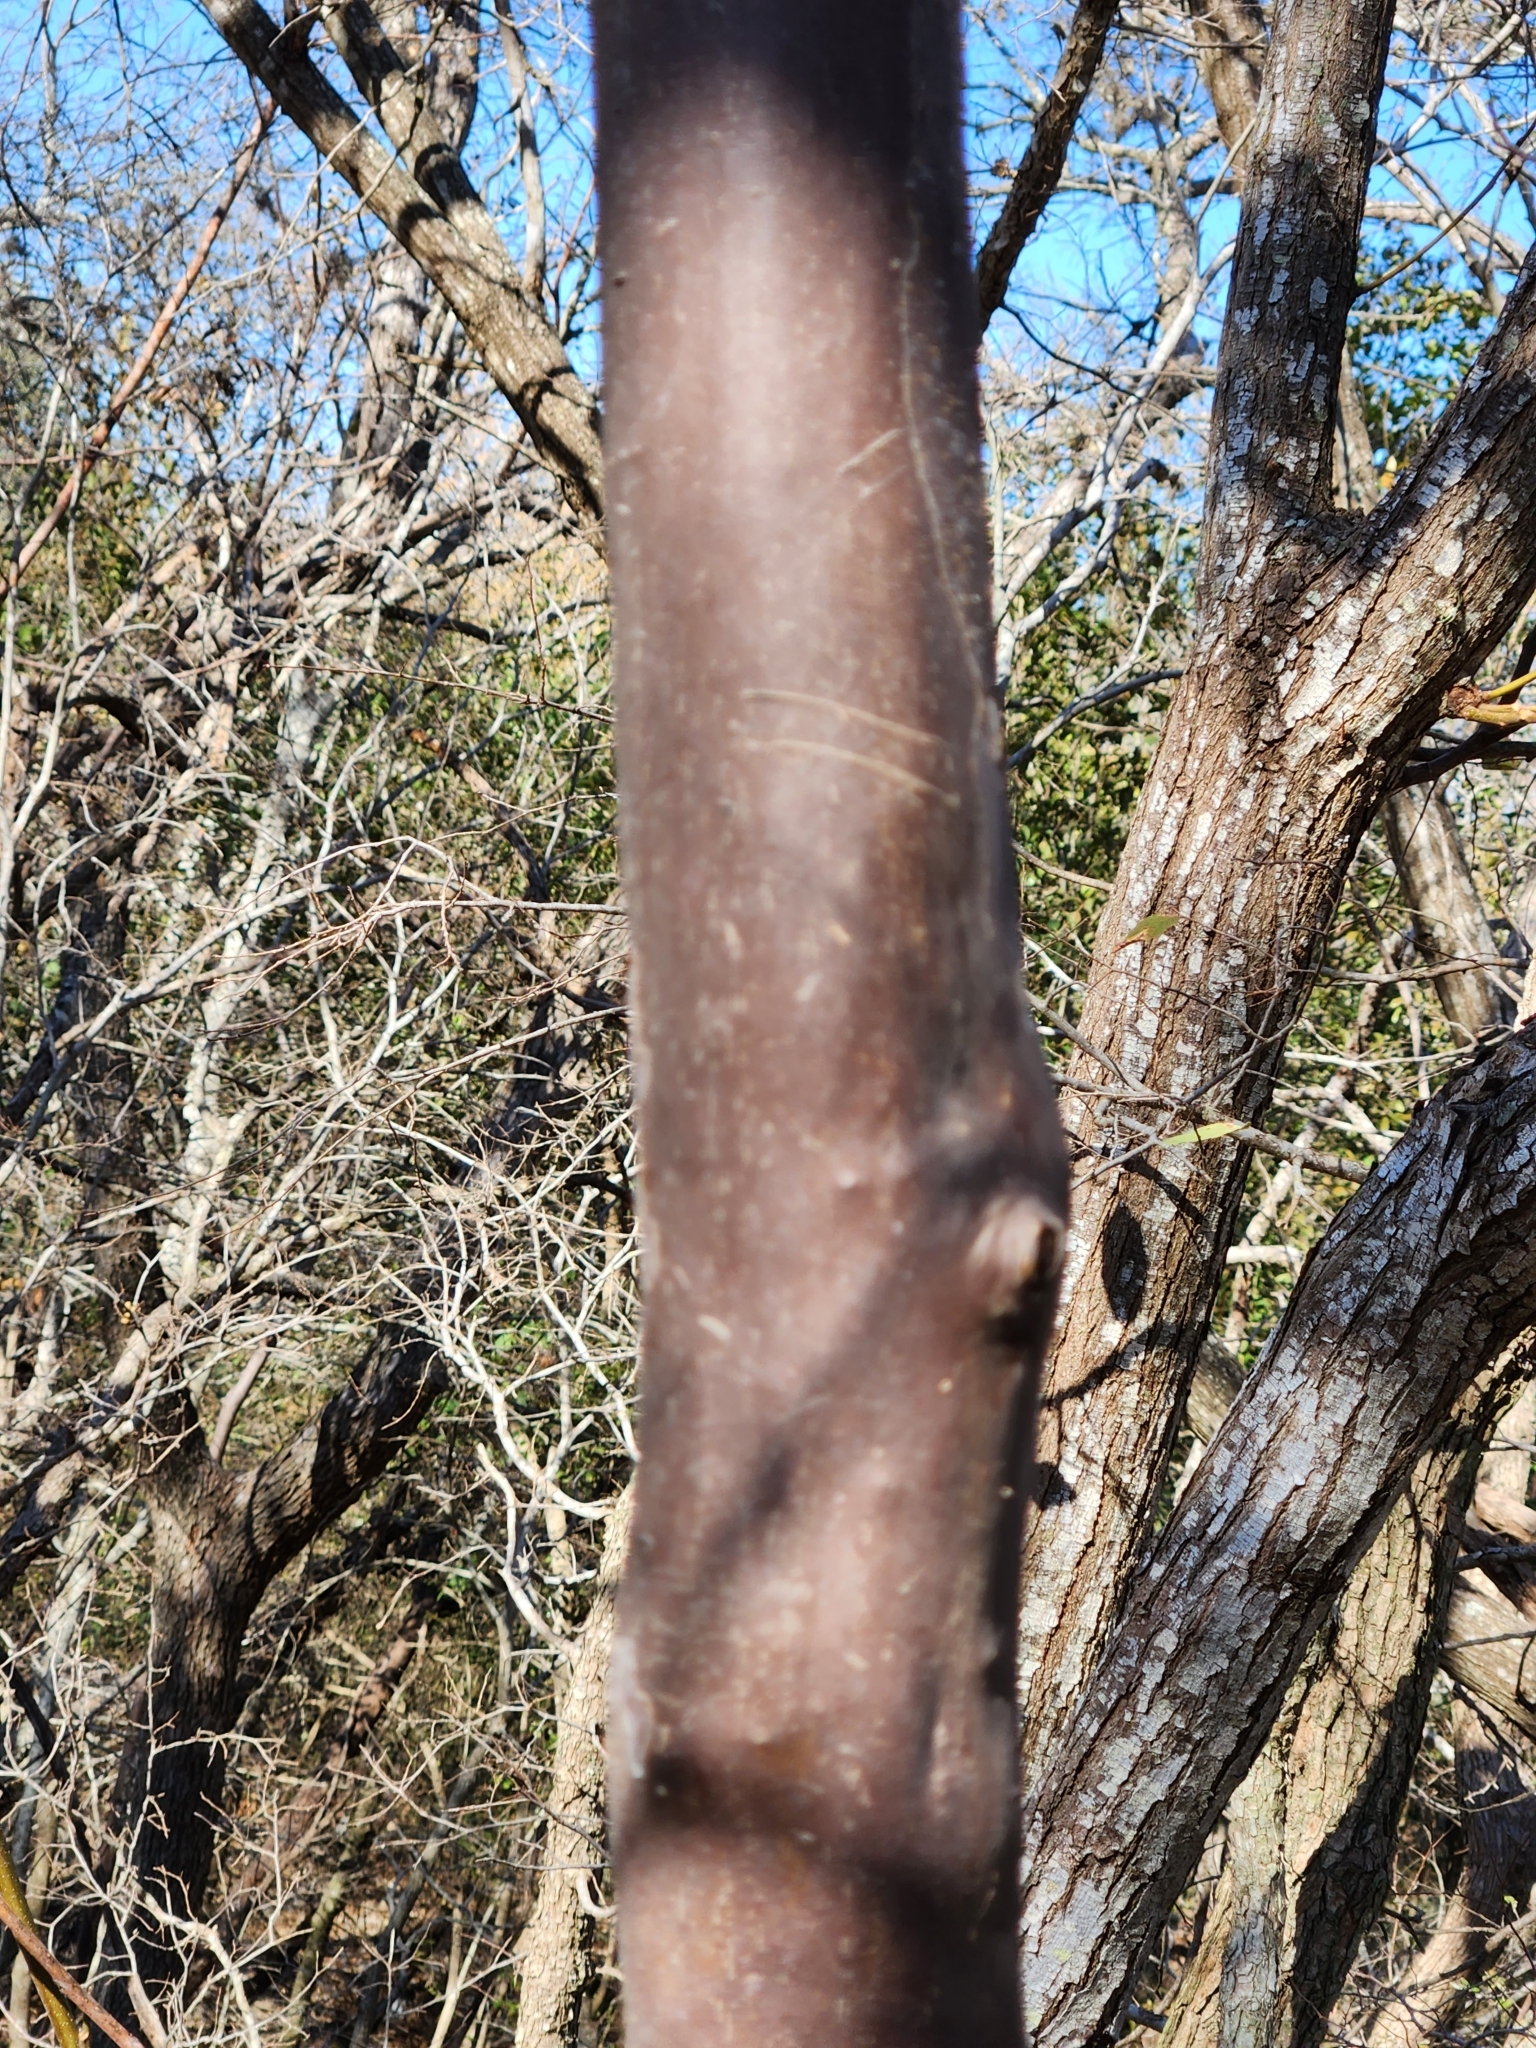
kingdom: Plantae
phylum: Tracheophyta
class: Magnoliopsida
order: Ericales
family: Ebenaceae
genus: Diospyros
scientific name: Diospyros texana
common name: Texas persimmon
